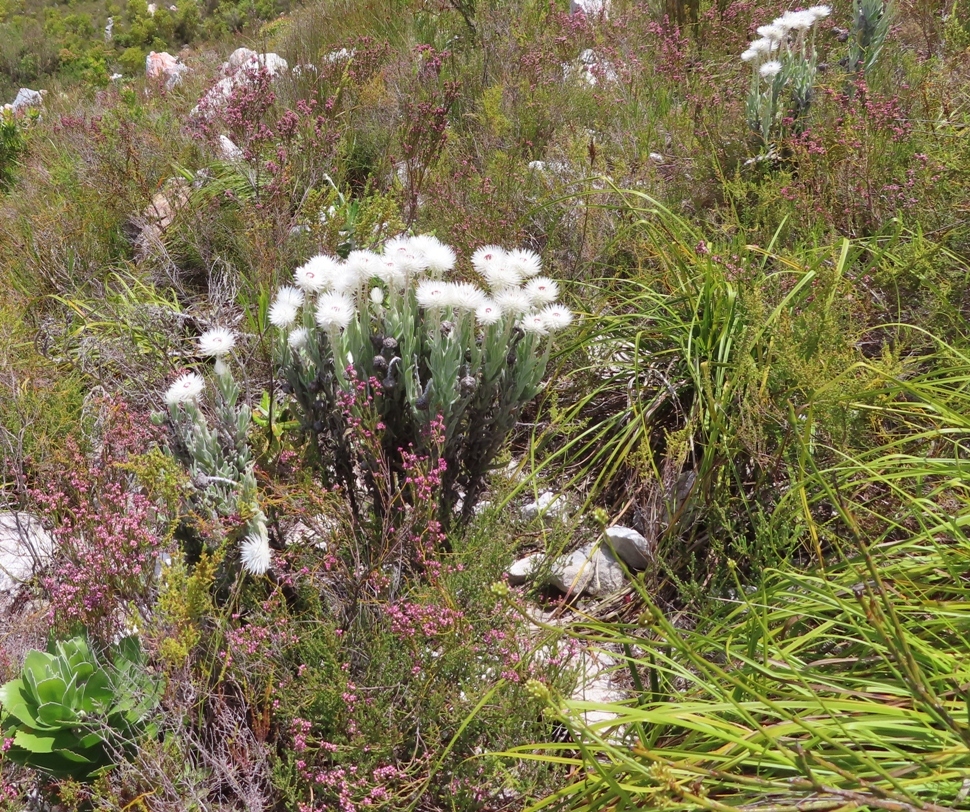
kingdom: Plantae
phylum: Tracheophyta
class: Magnoliopsida
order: Asterales
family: Asteraceae
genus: Syncarpha
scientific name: Syncarpha vestita
